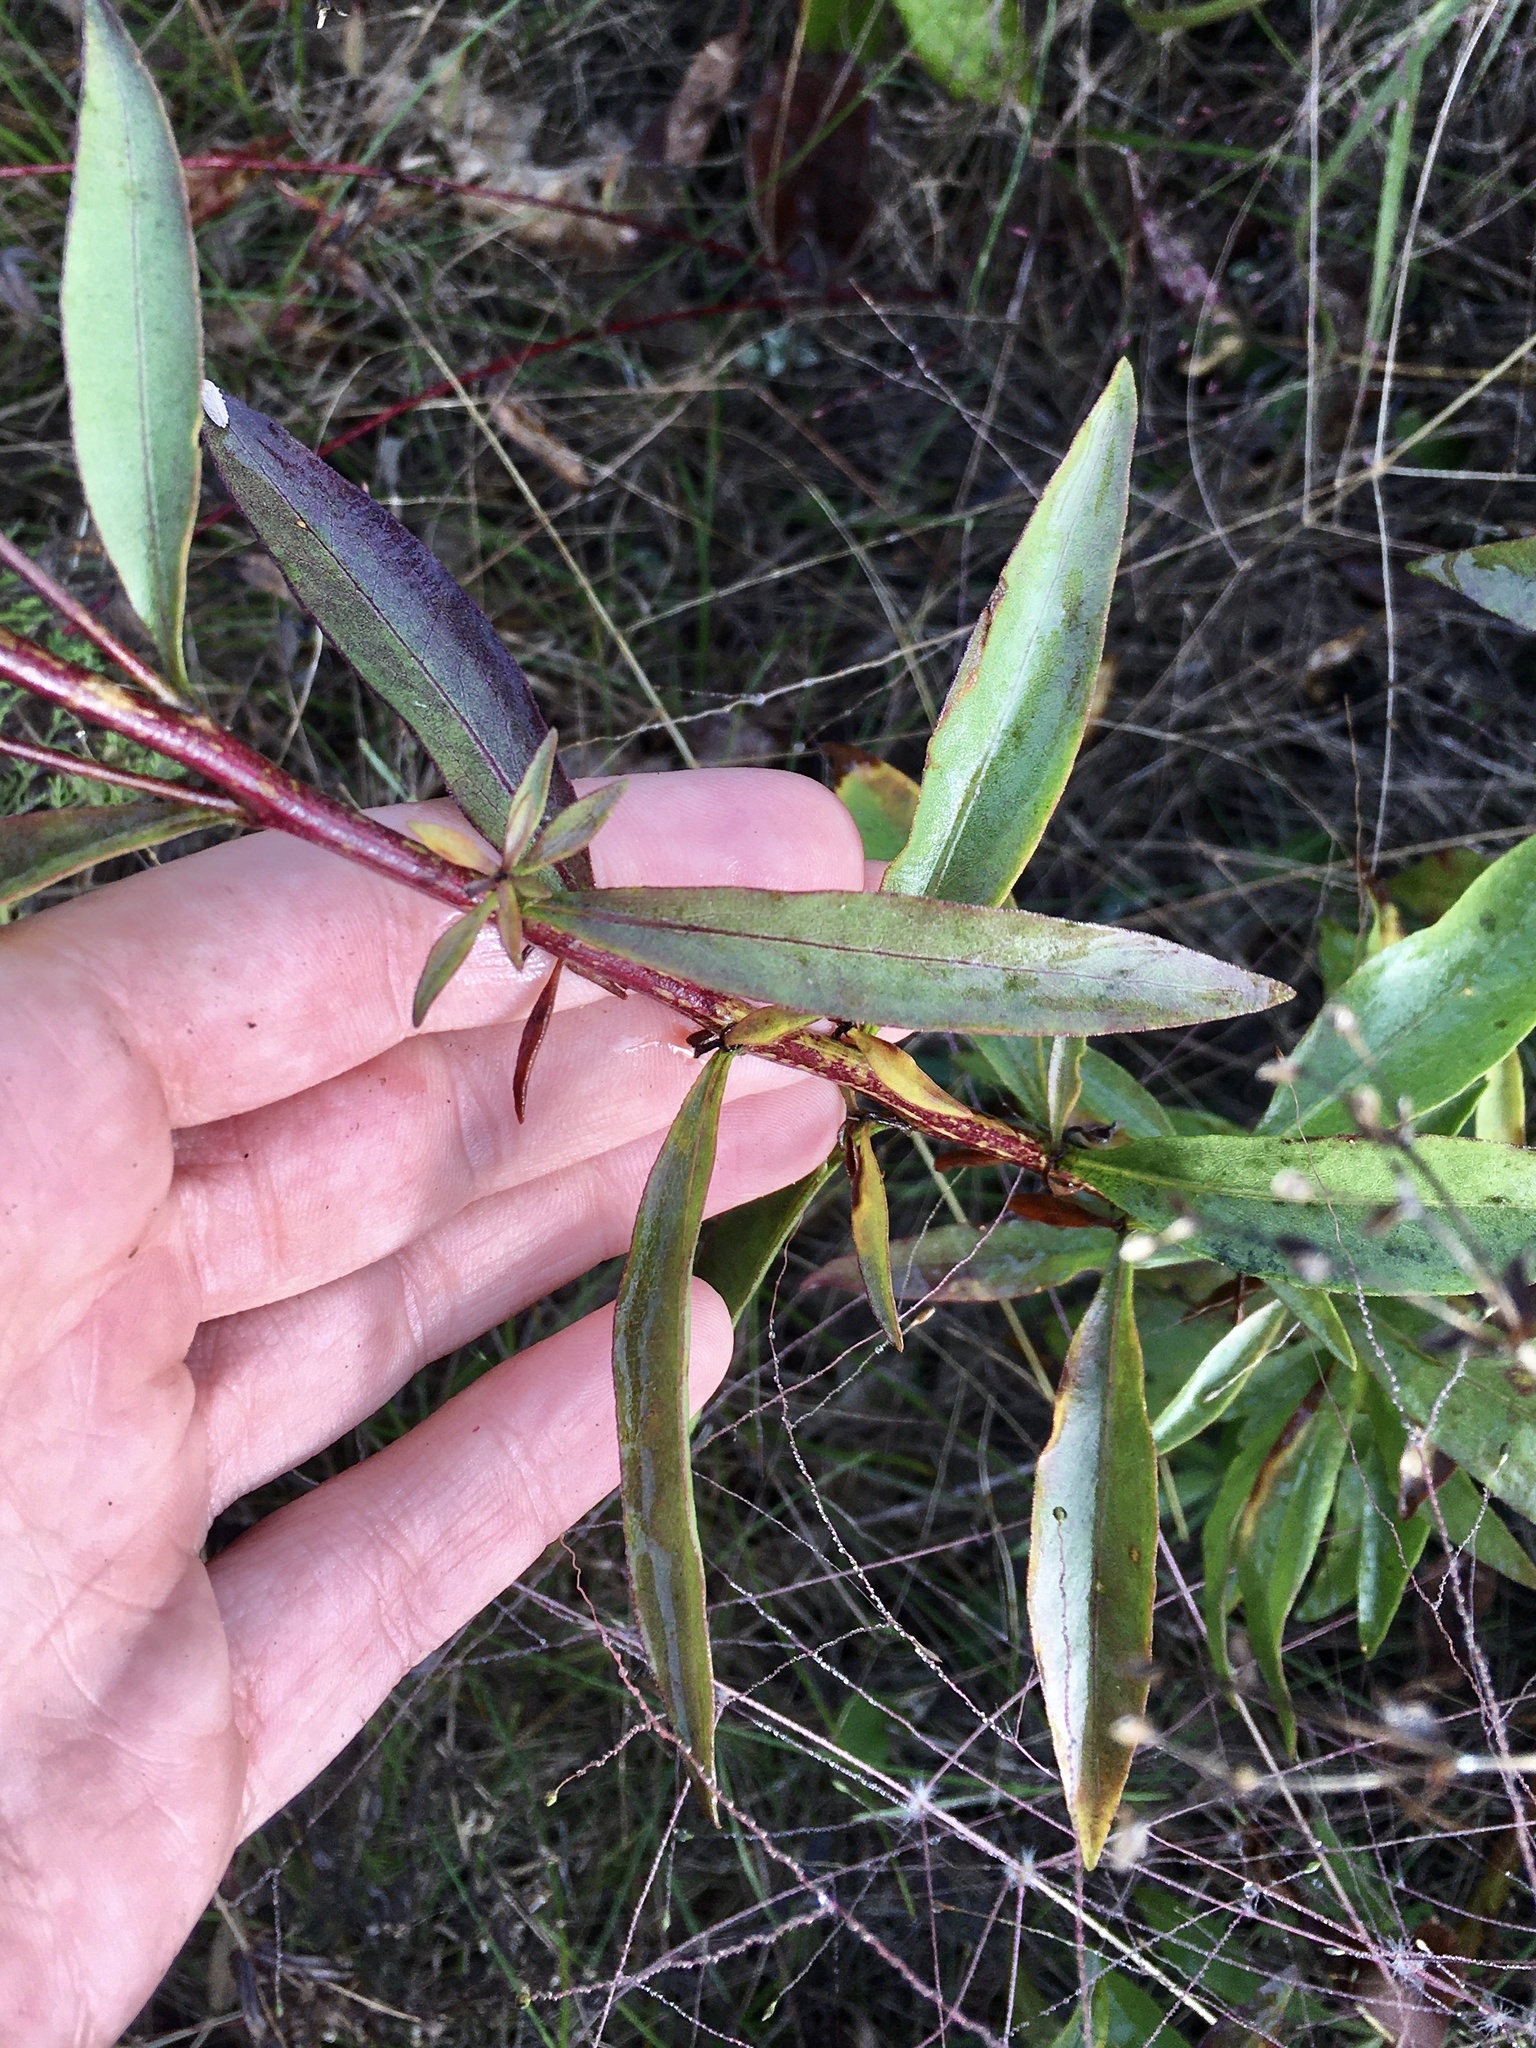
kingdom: Plantae
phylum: Tracheophyta
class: Magnoliopsida
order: Asterales
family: Asteraceae
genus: Solidago
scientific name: Solidago rigidiuscula
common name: Stiff-leaved showy goldenrod
